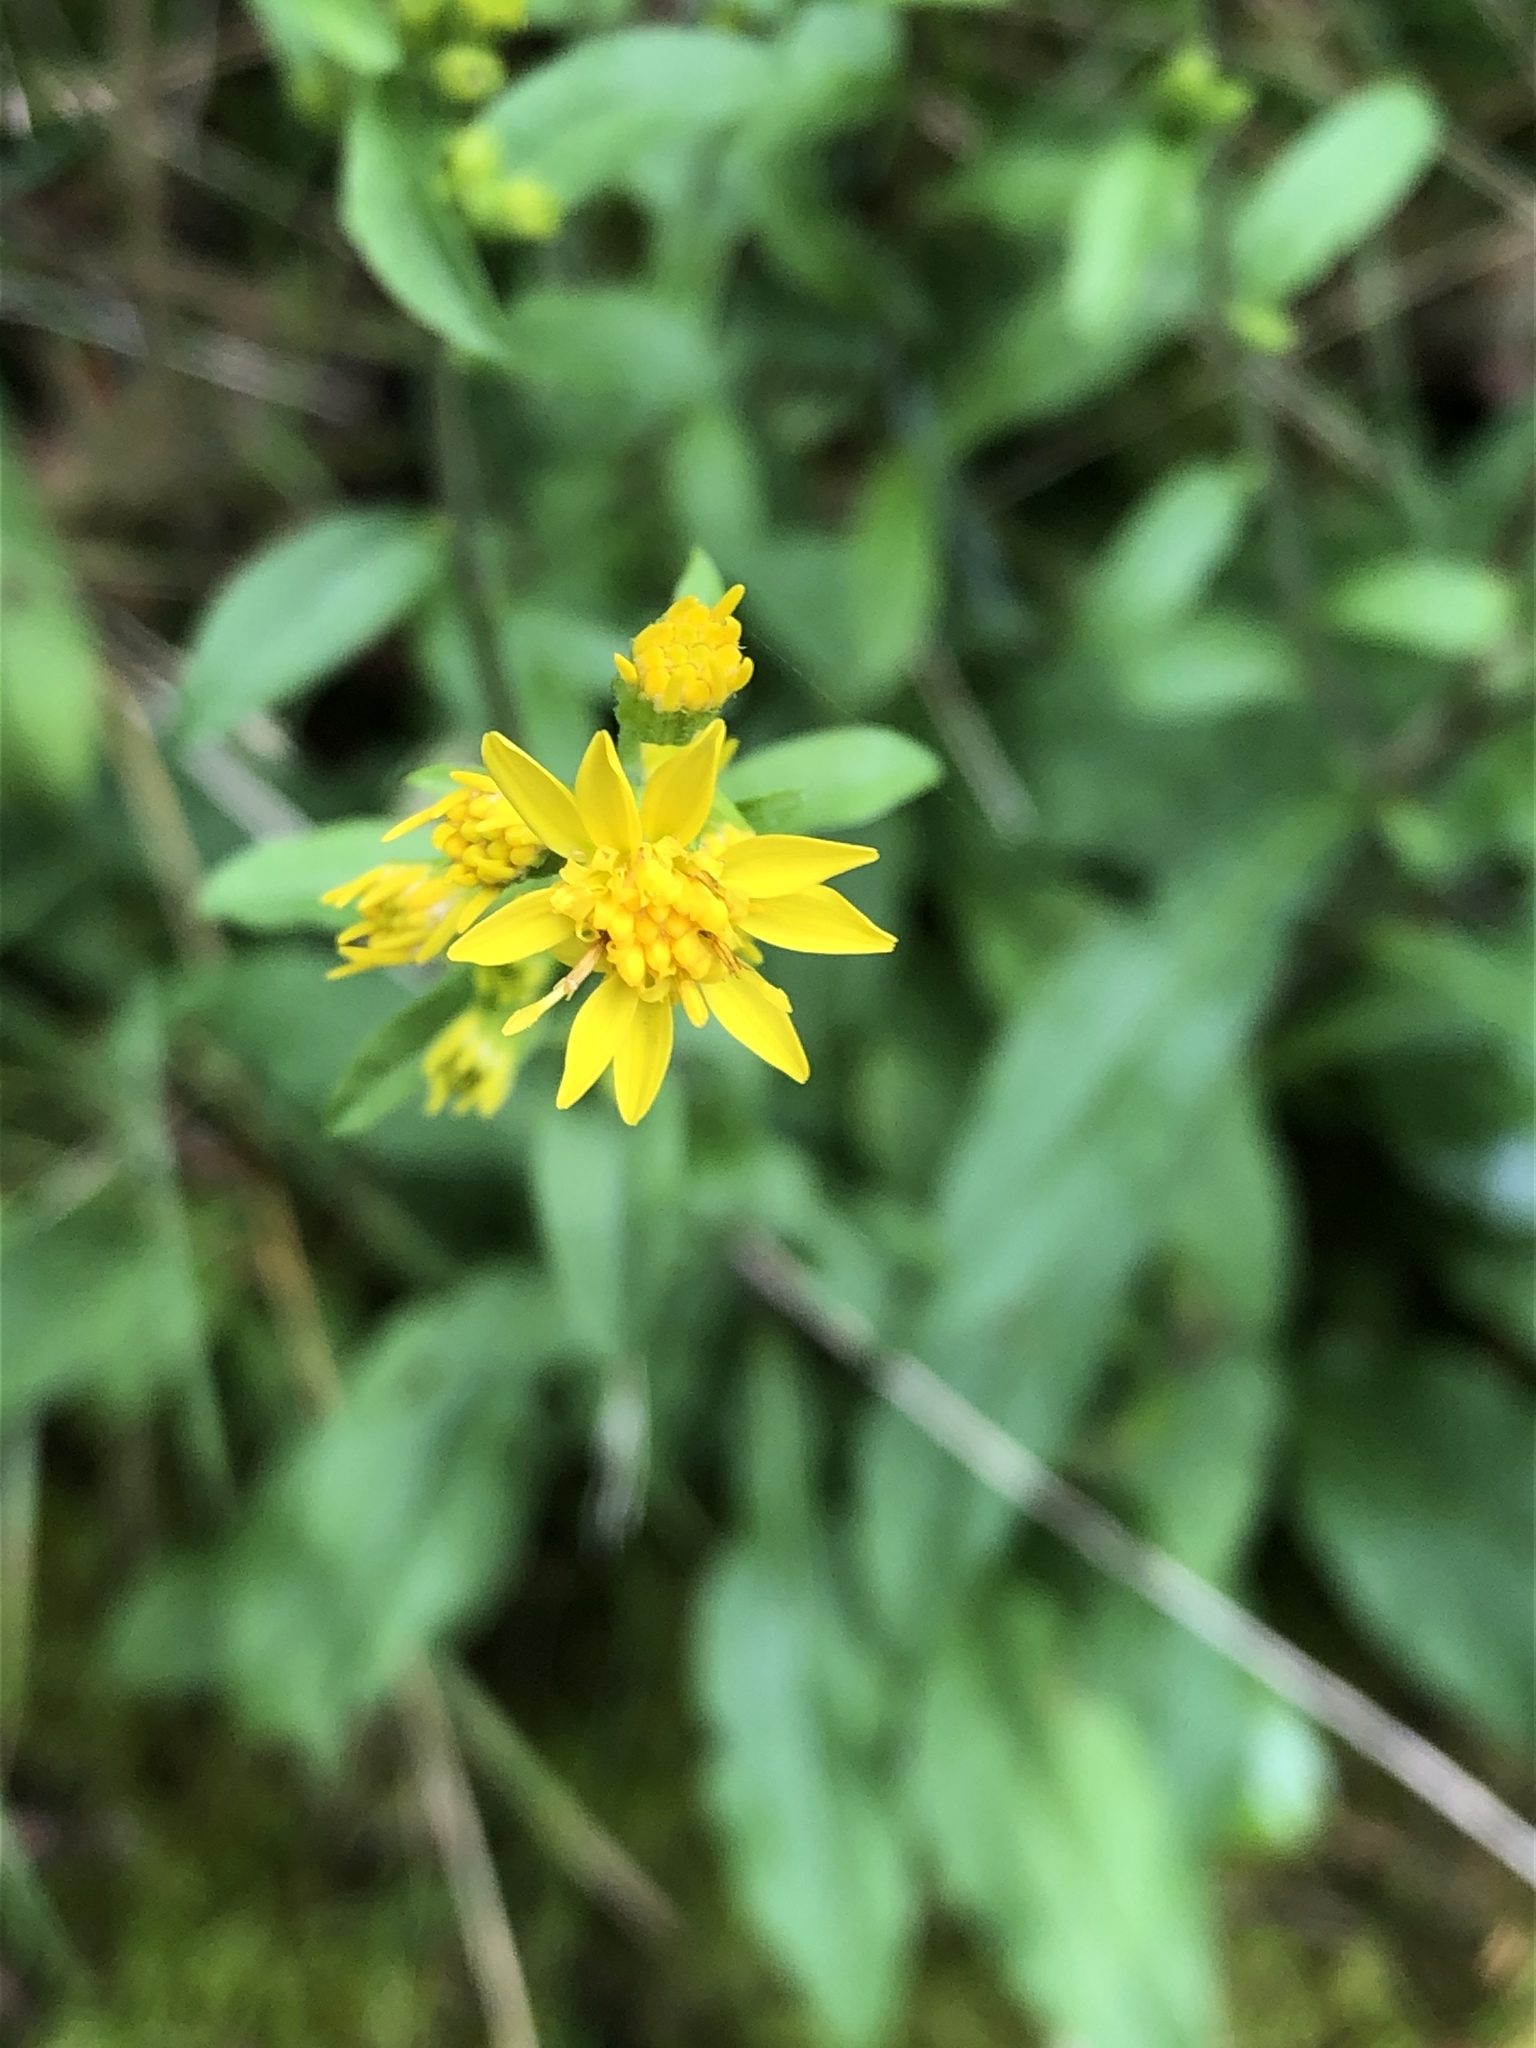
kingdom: Plantae
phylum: Tracheophyta
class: Magnoliopsida
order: Asterales
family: Asteraceae
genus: Solidago
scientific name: Solidago virgaurea
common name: Goldenrod
